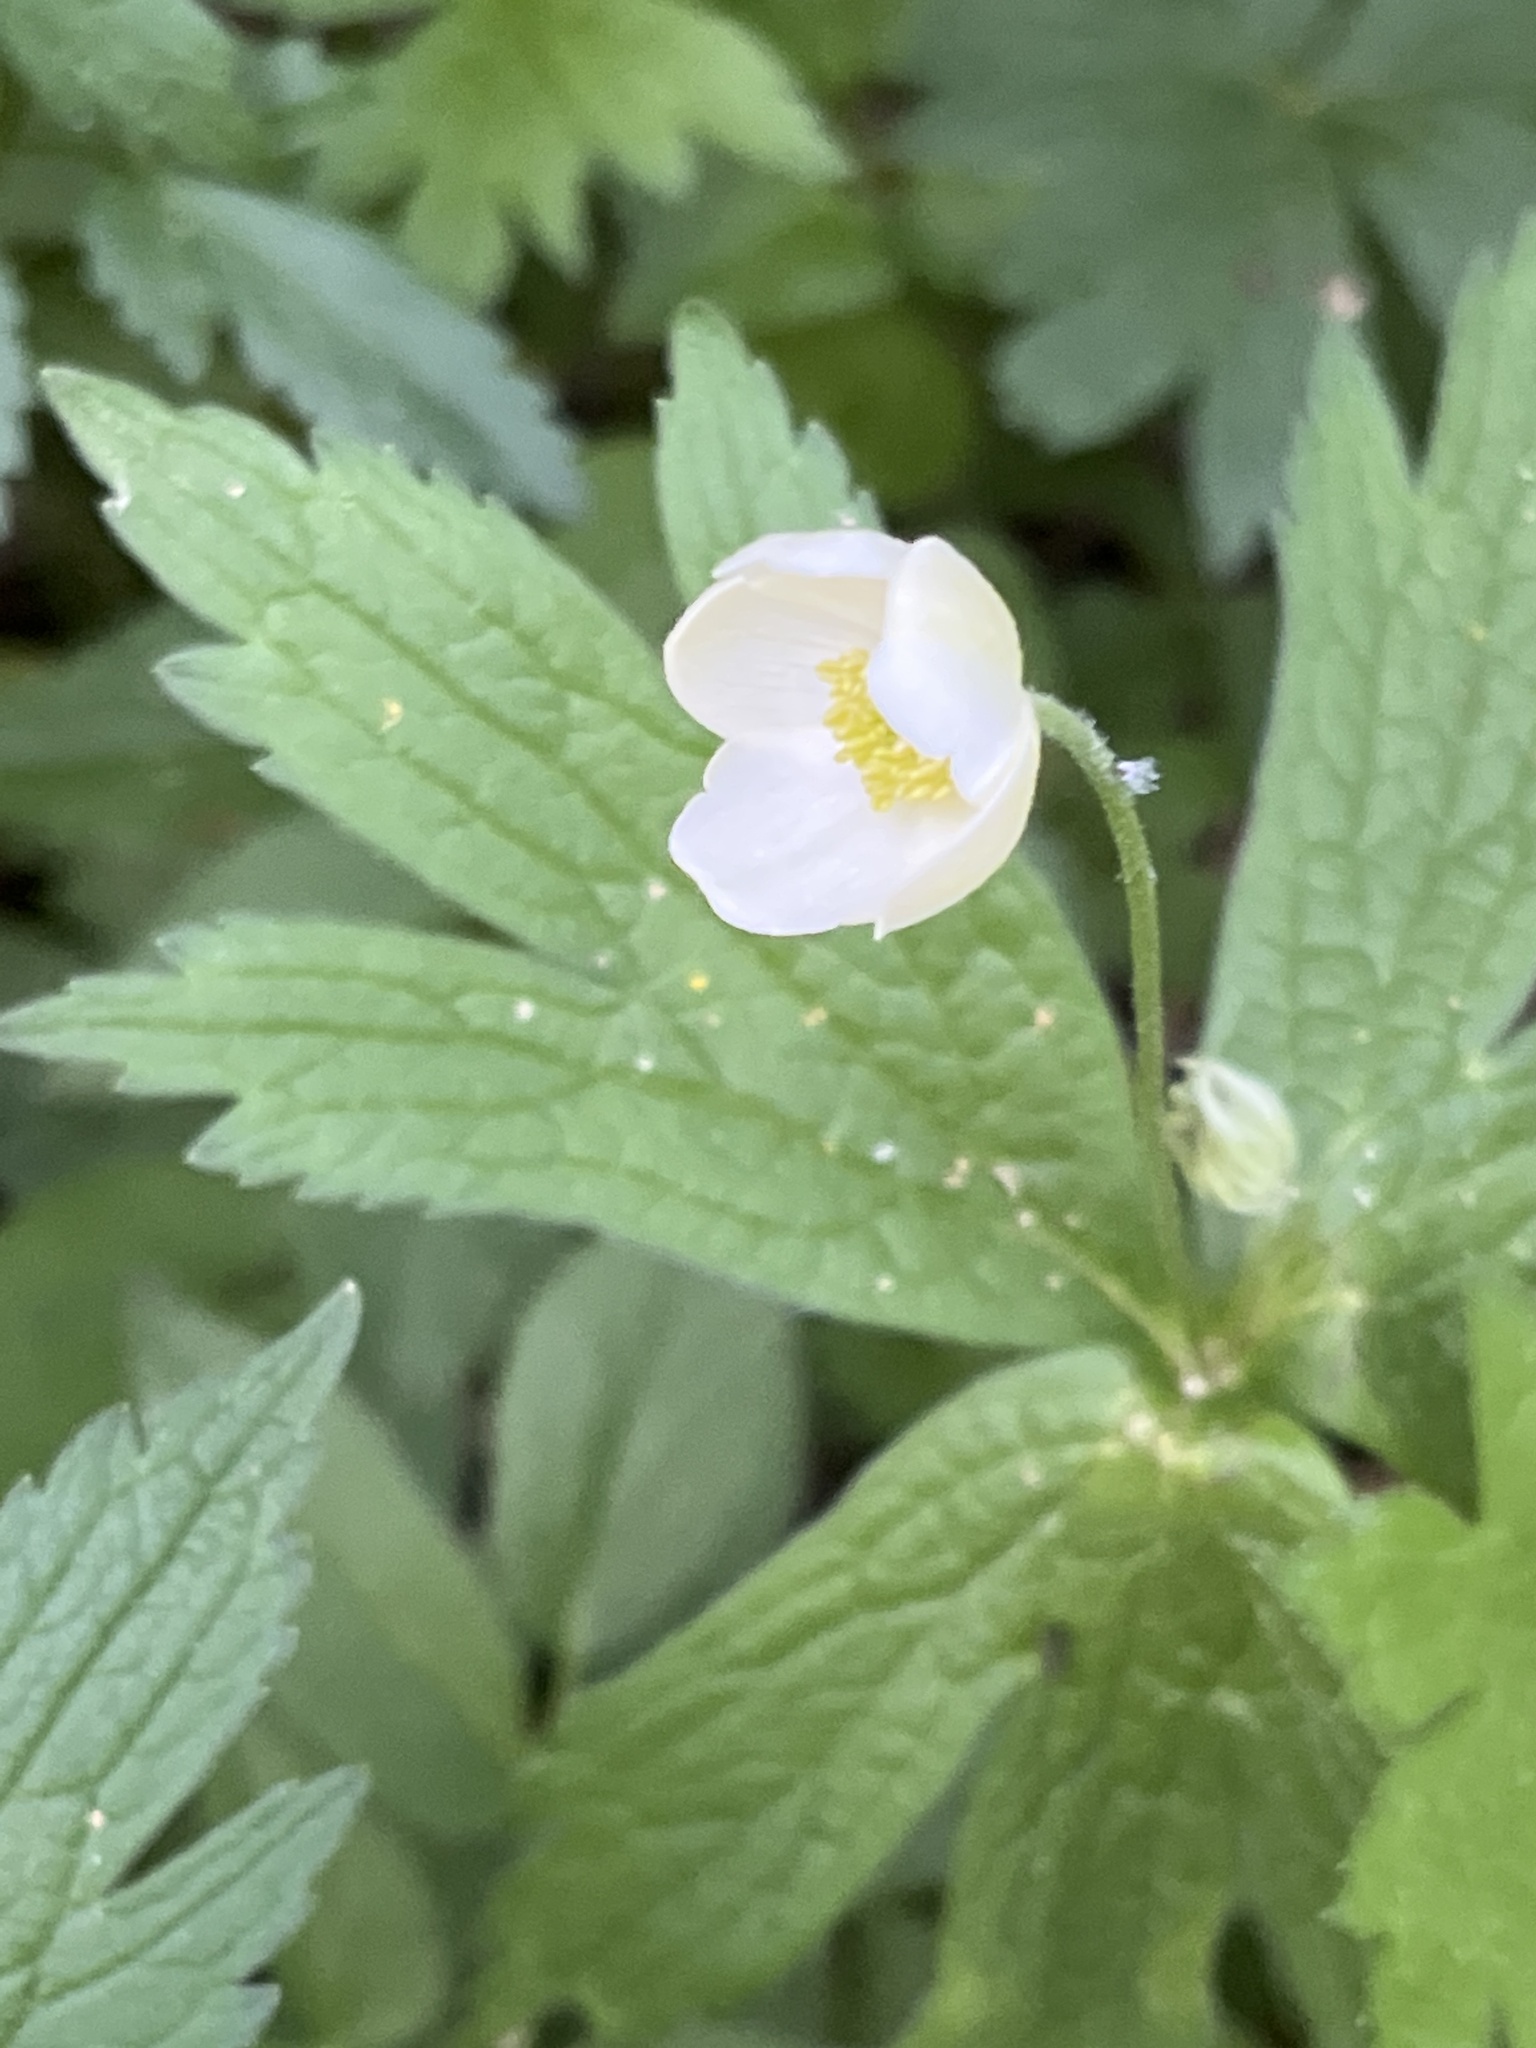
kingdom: Plantae
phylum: Tracheophyta
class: Magnoliopsida
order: Ranunculales
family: Ranunculaceae
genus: Anemonastrum
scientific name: Anemonastrum canadense
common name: Canada anemone
